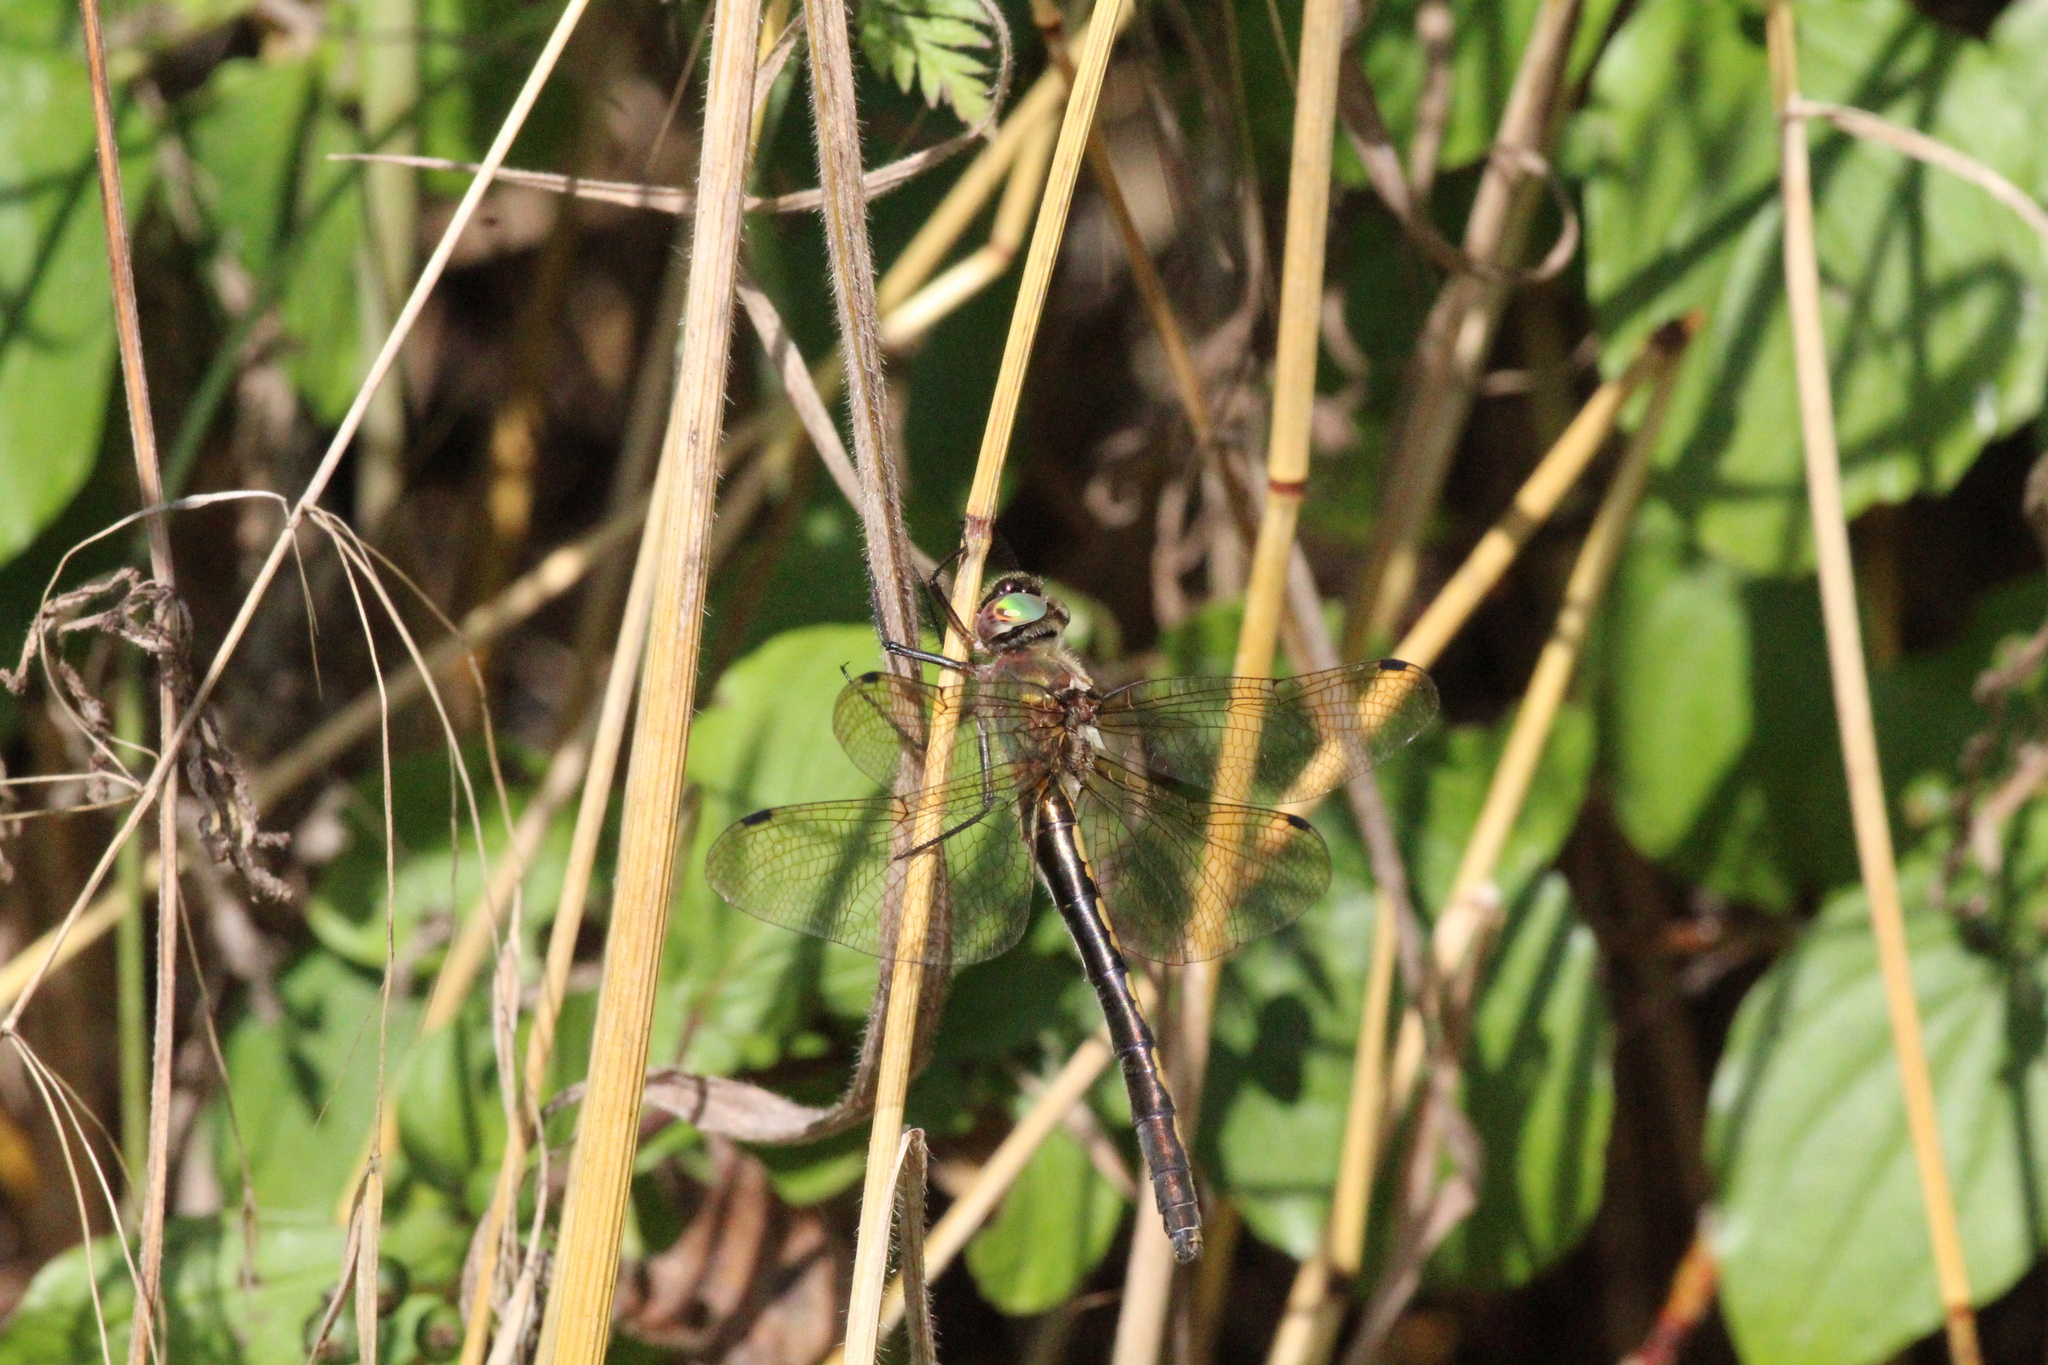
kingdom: Animalia
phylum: Arthropoda
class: Insecta
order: Odonata
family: Corduliidae
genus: Oxygastra
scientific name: Oxygastra curtisii
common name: Orange-spotted emerald
